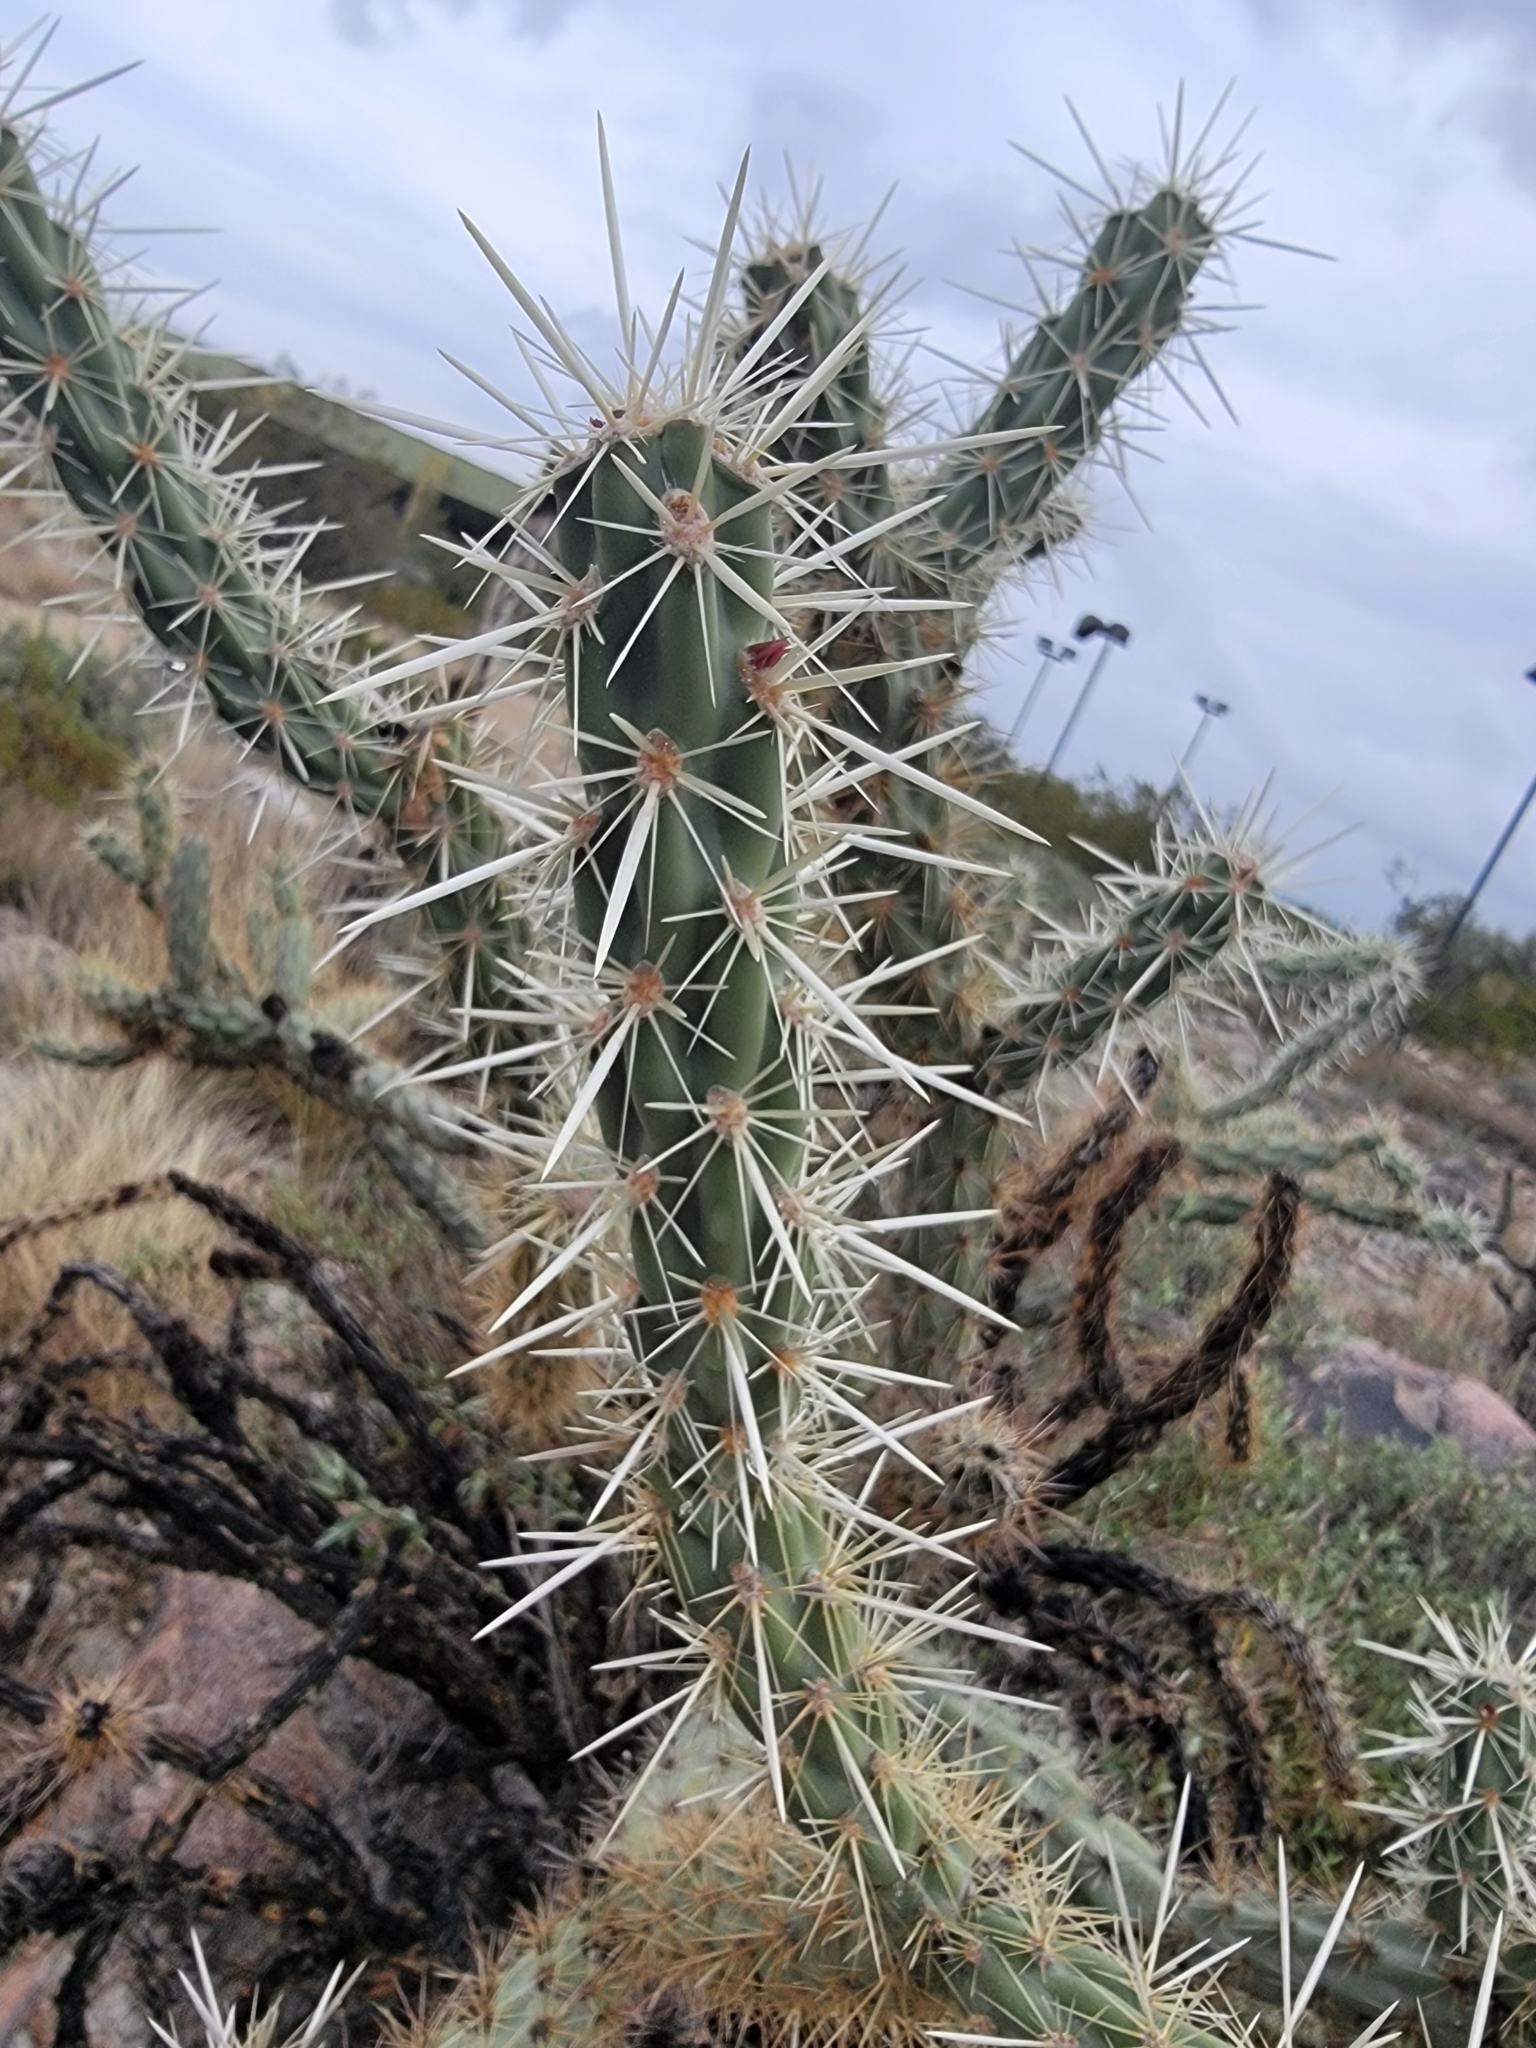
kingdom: Plantae
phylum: Tracheophyta
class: Magnoliopsida
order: Caryophyllales
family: Cactaceae
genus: Cylindropuntia
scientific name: Cylindropuntia acanthocarpa
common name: Buckhorn cholla
